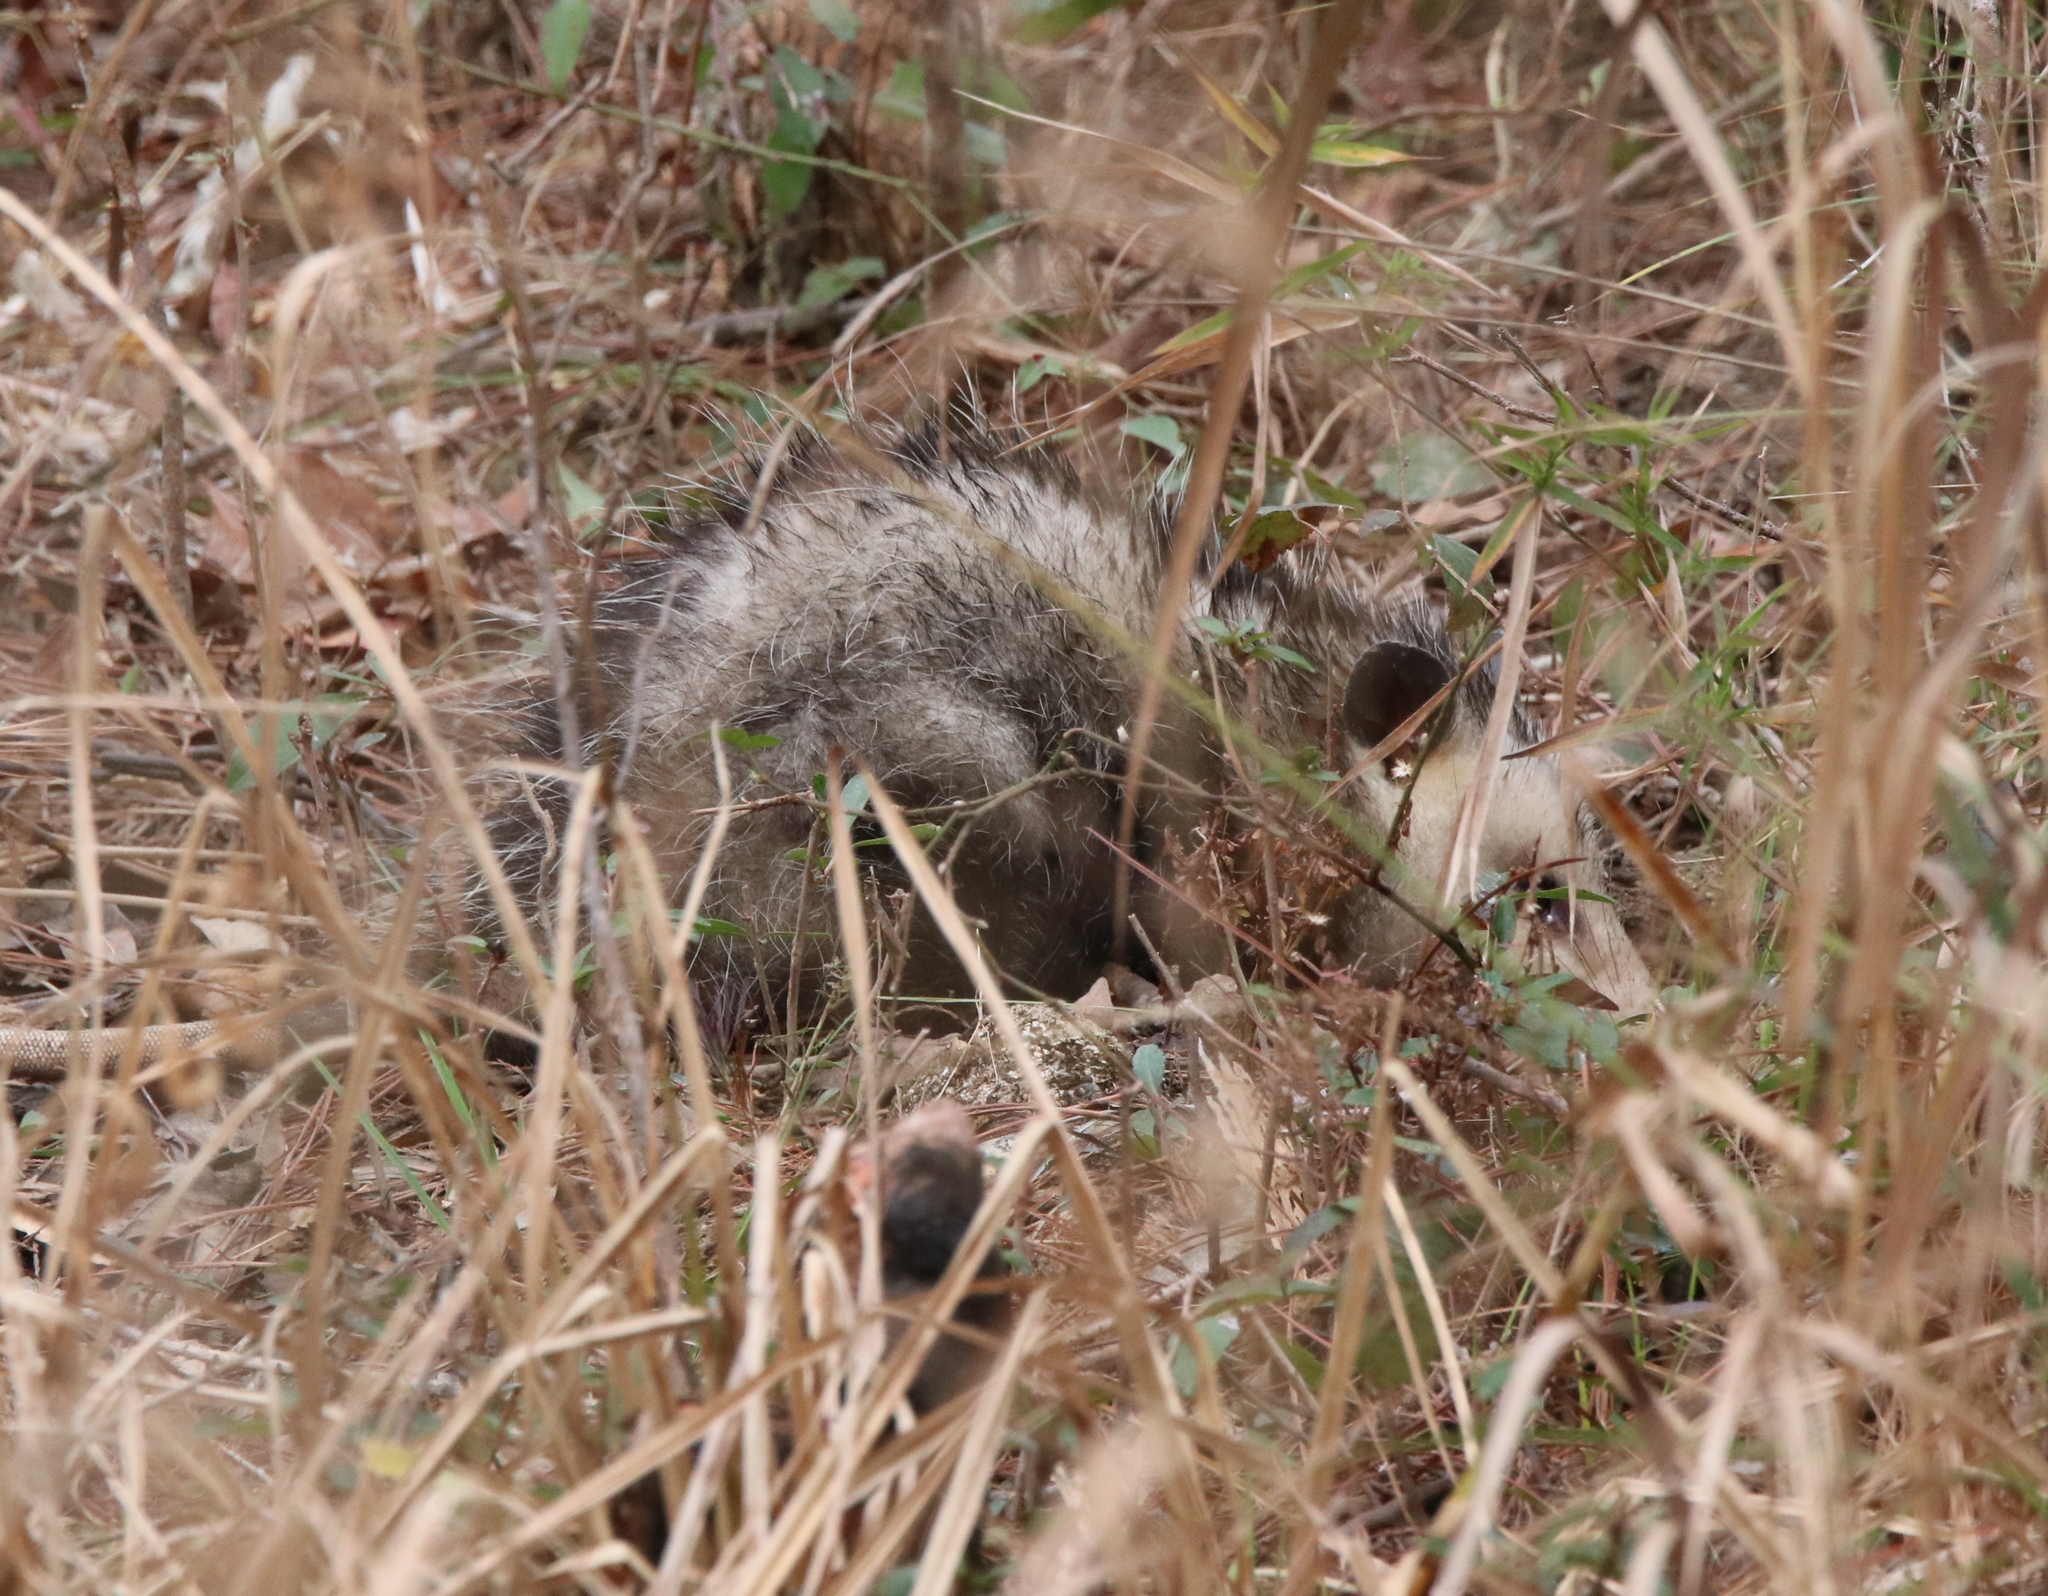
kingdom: Animalia
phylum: Chordata
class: Mammalia
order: Didelphimorphia
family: Didelphidae
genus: Didelphis
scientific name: Didelphis virginiana
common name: Virginia opossum
